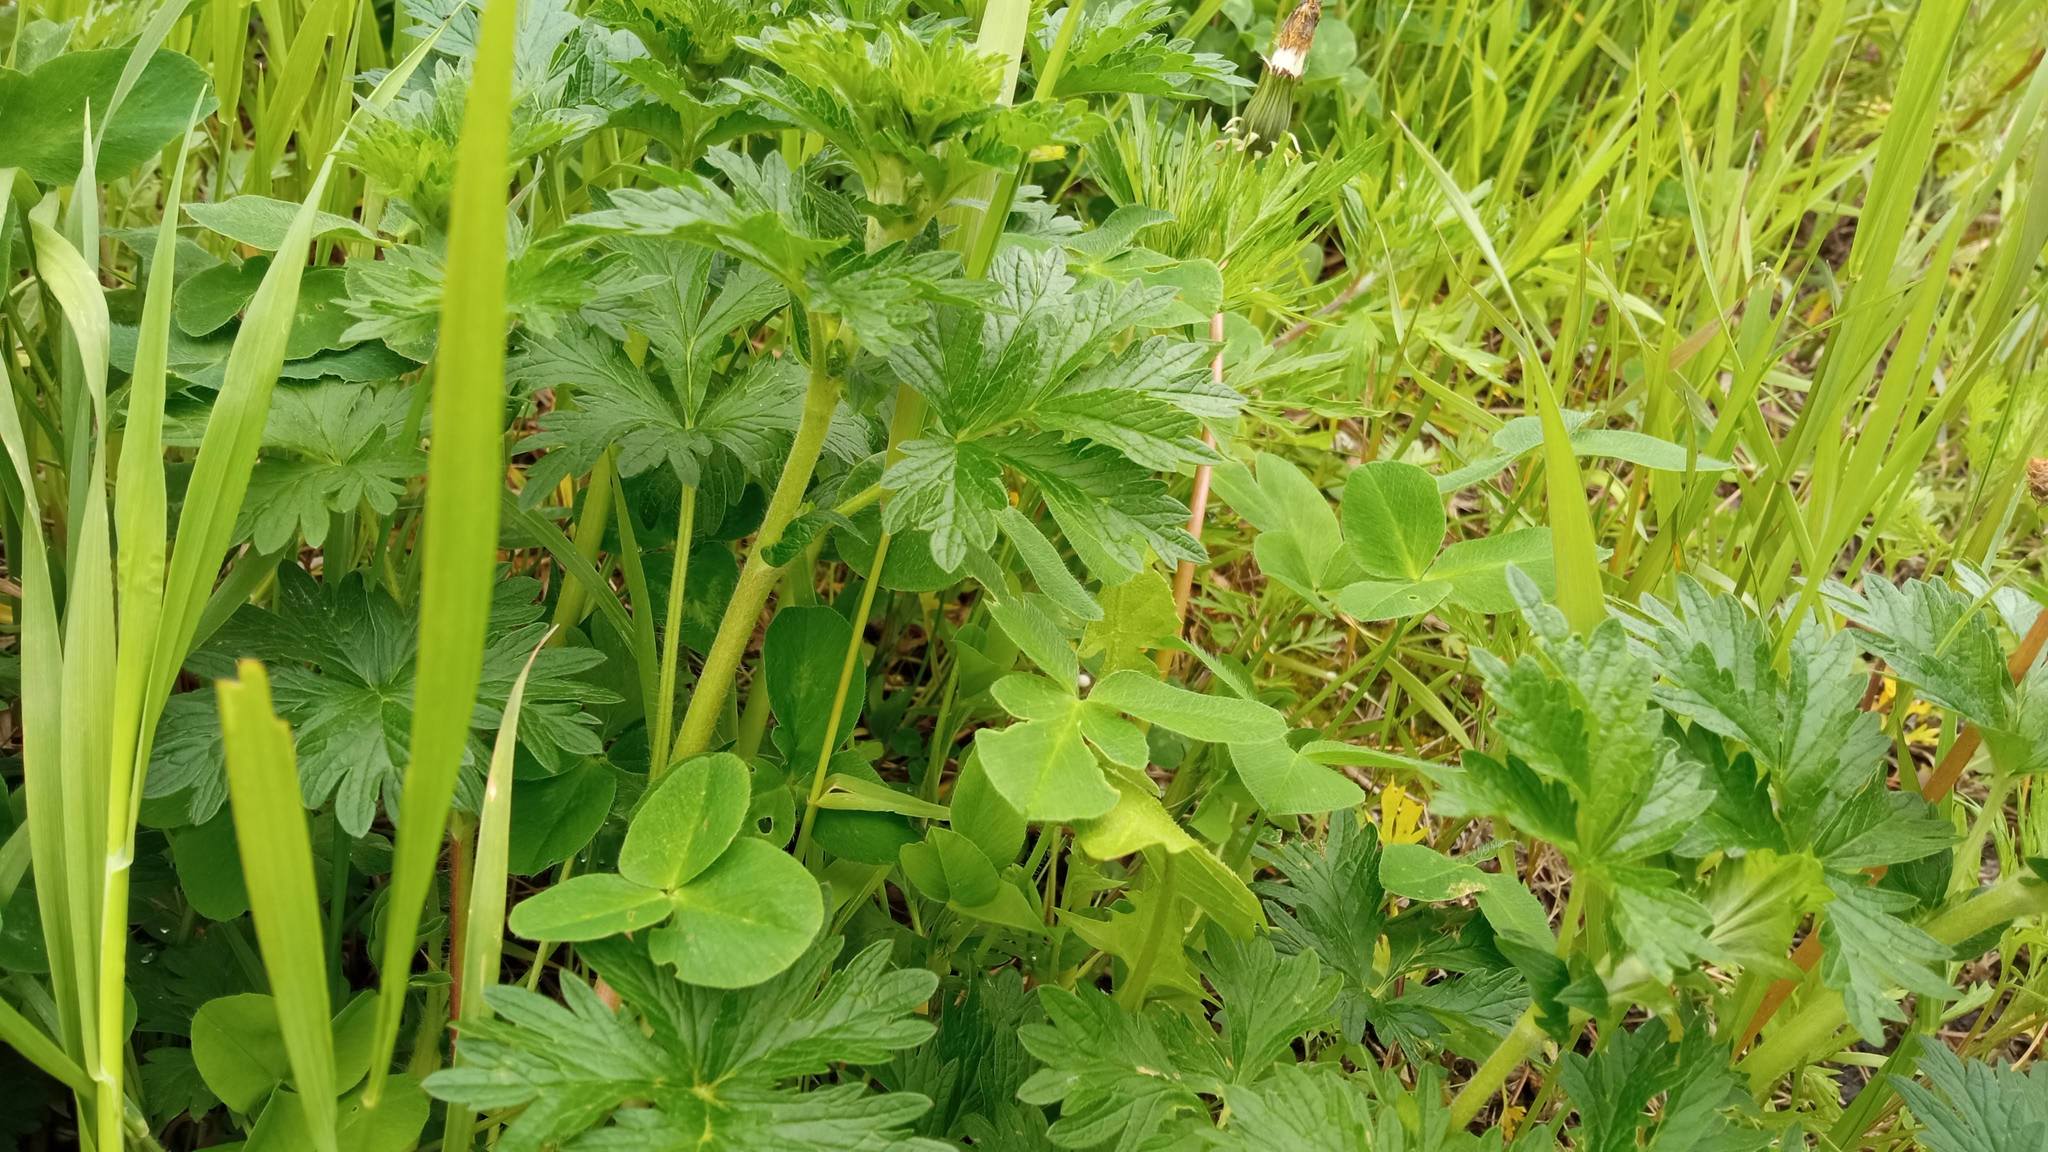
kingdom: Plantae
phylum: Tracheophyta
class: Magnoliopsida
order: Rosales
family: Rosaceae
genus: Potentilla
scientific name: Potentilla intermedia
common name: Downy cinquefoil
